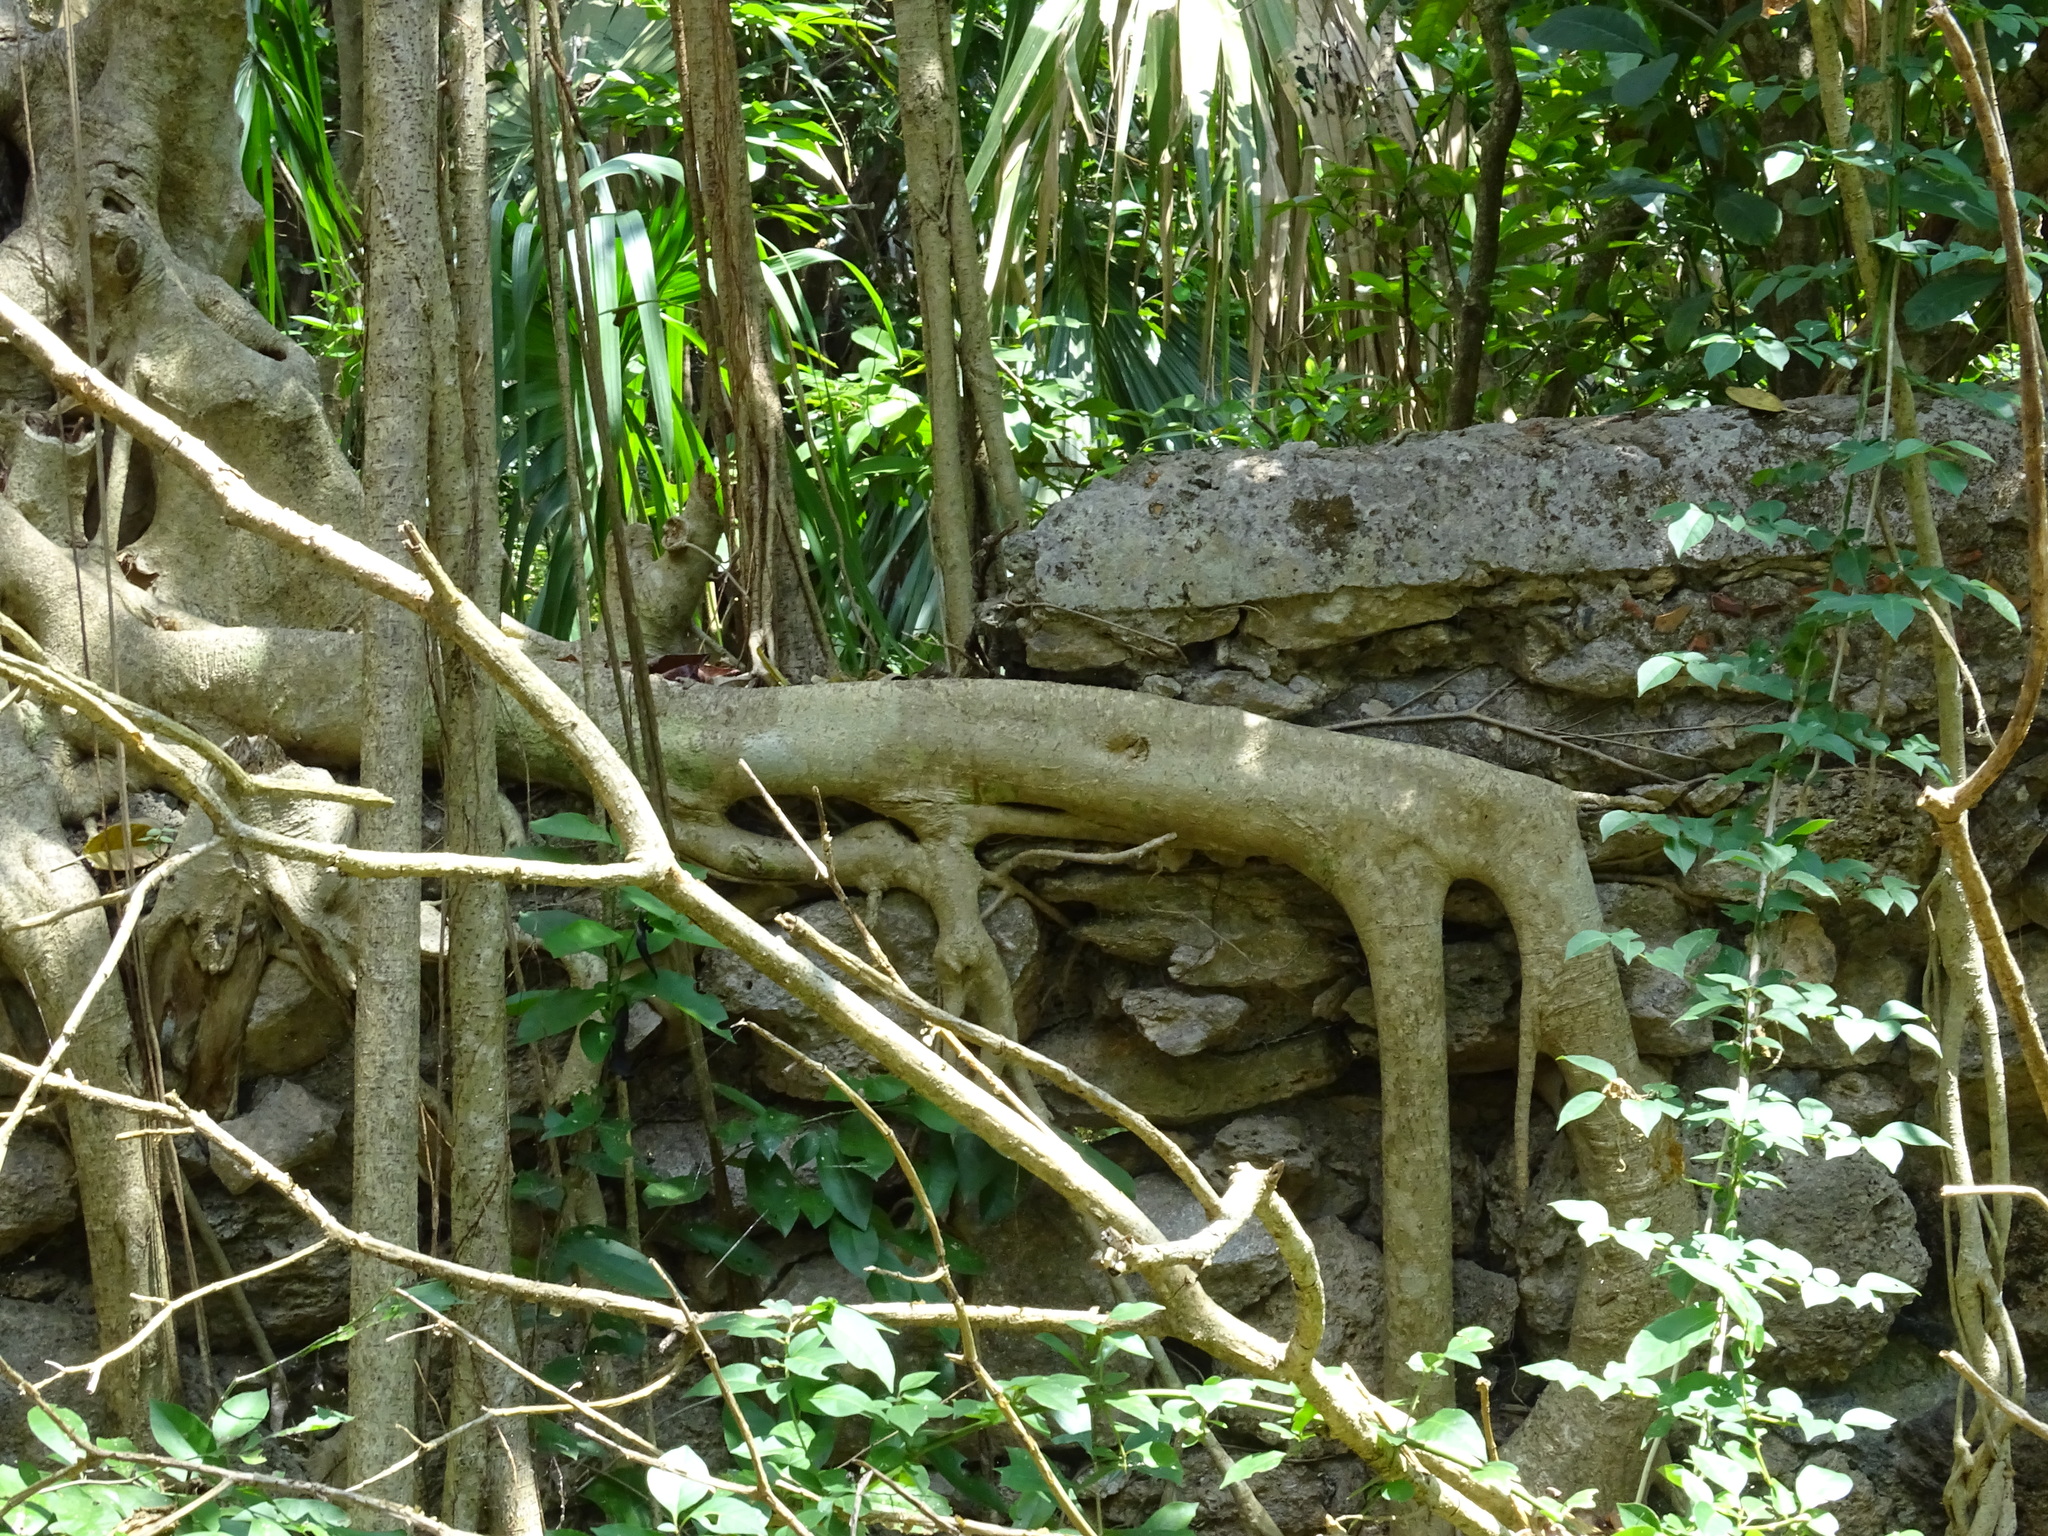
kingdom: Plantae
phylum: Tracheophyta
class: Magnoliopsida
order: Rosales
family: Moraceae
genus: Ficus
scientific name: Ficus crassinervia
